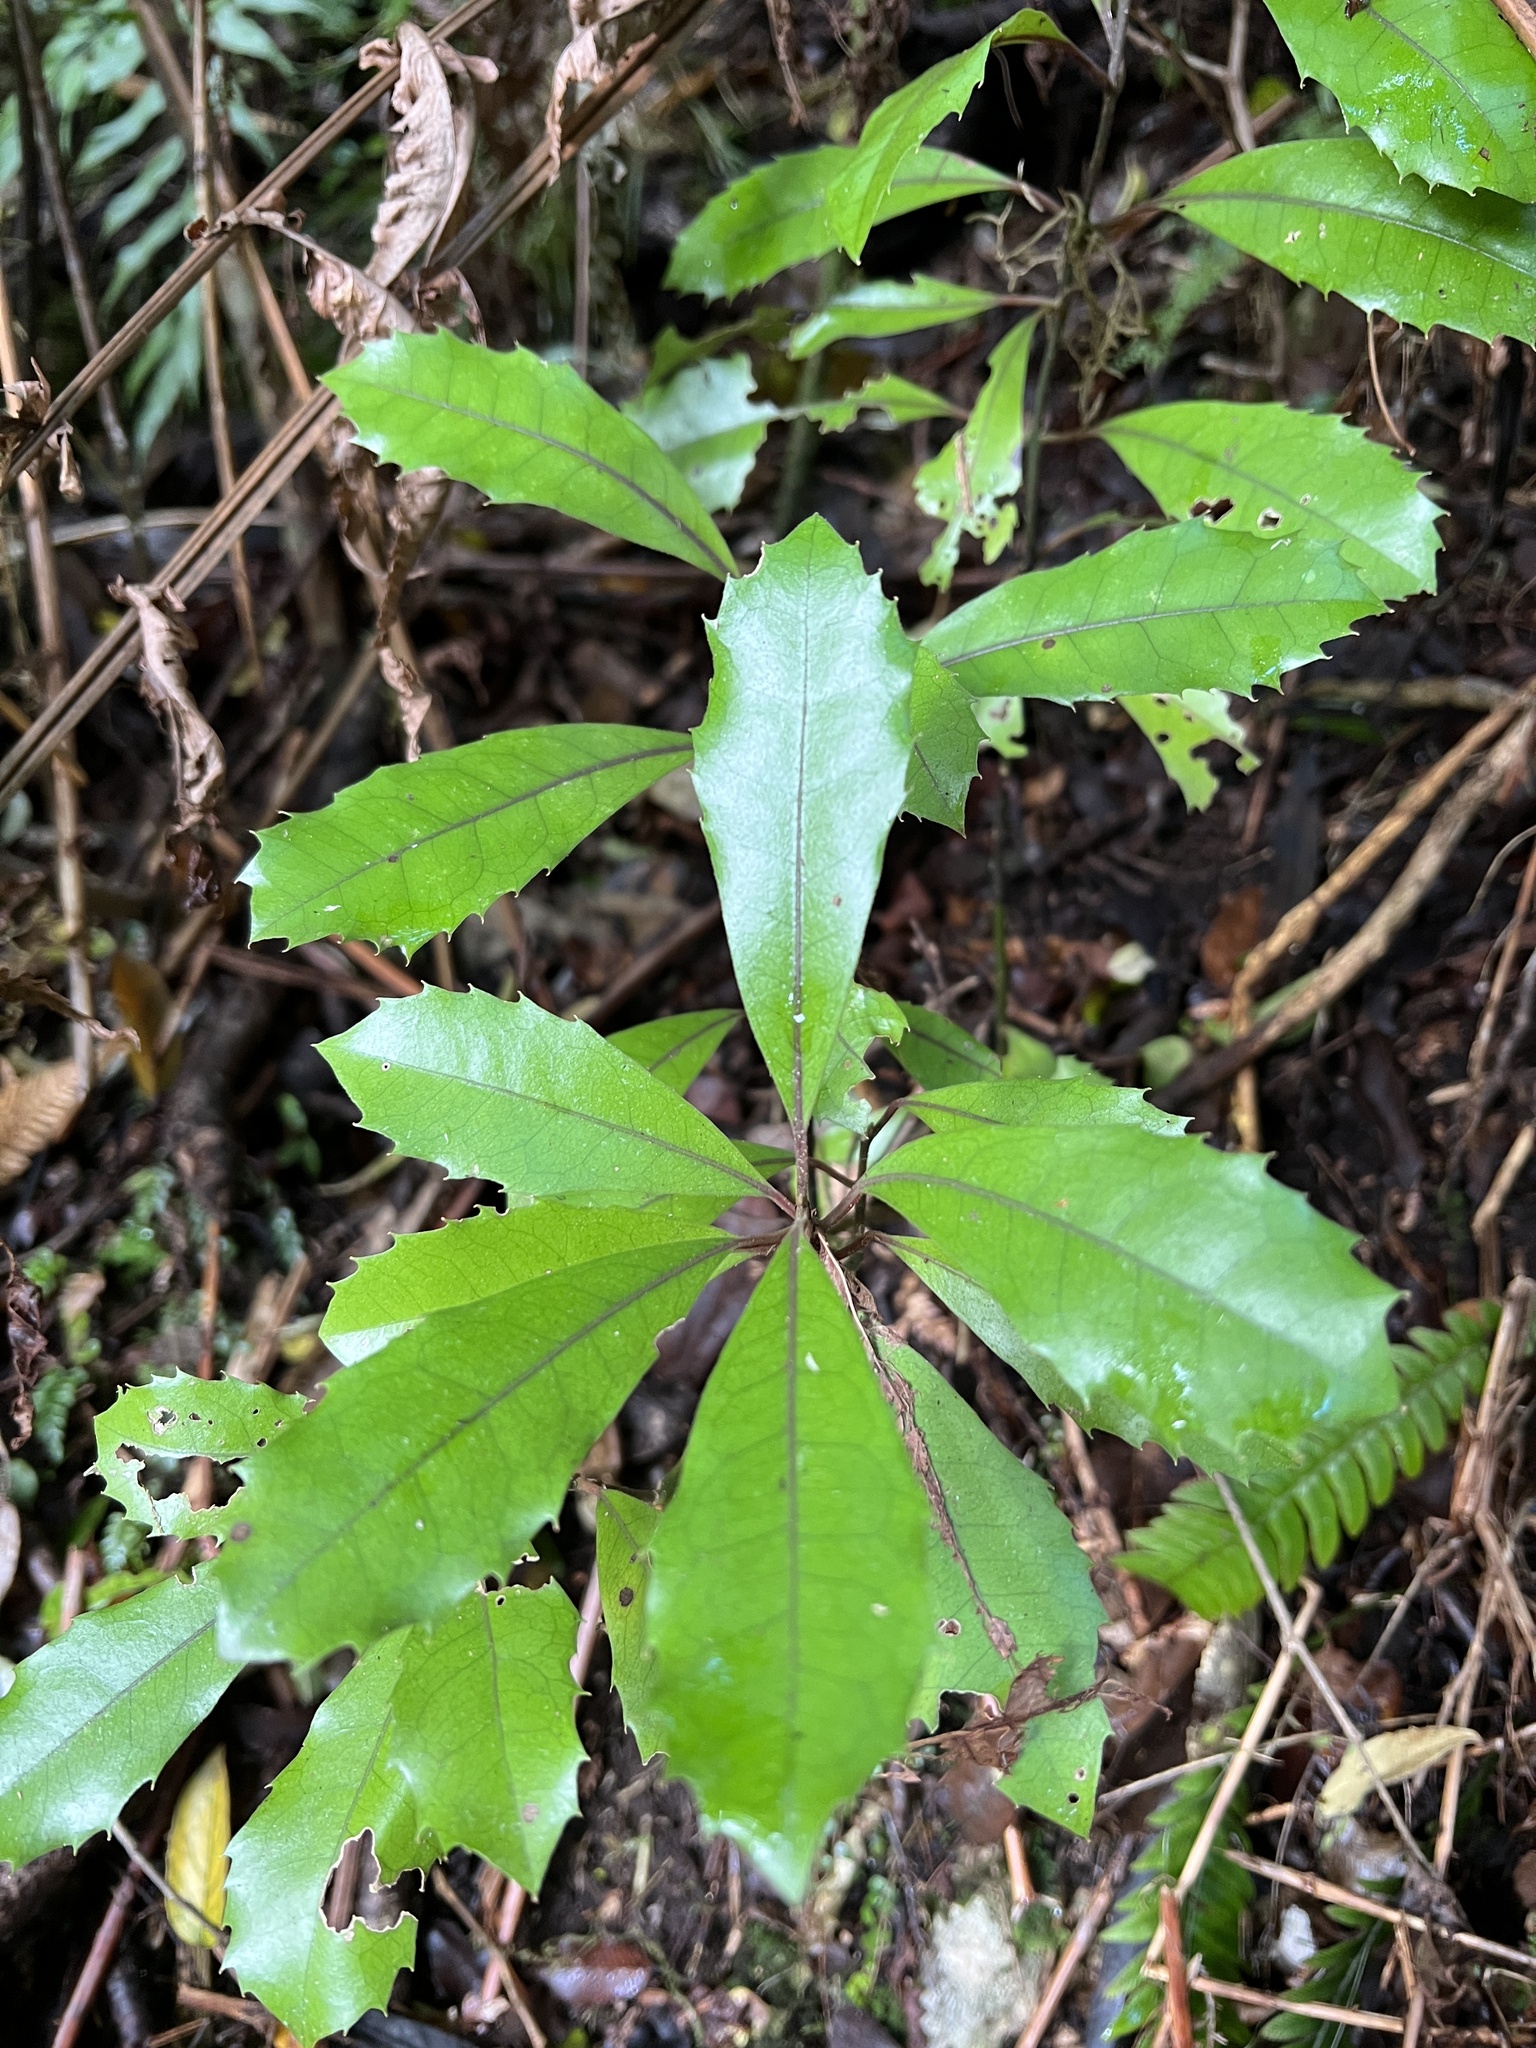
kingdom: Plantae
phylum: Tracheophyta
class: Magnoliopsida
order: Laurales
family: Monimiaceae
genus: Hedycarya
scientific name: Hedycarya arborea
